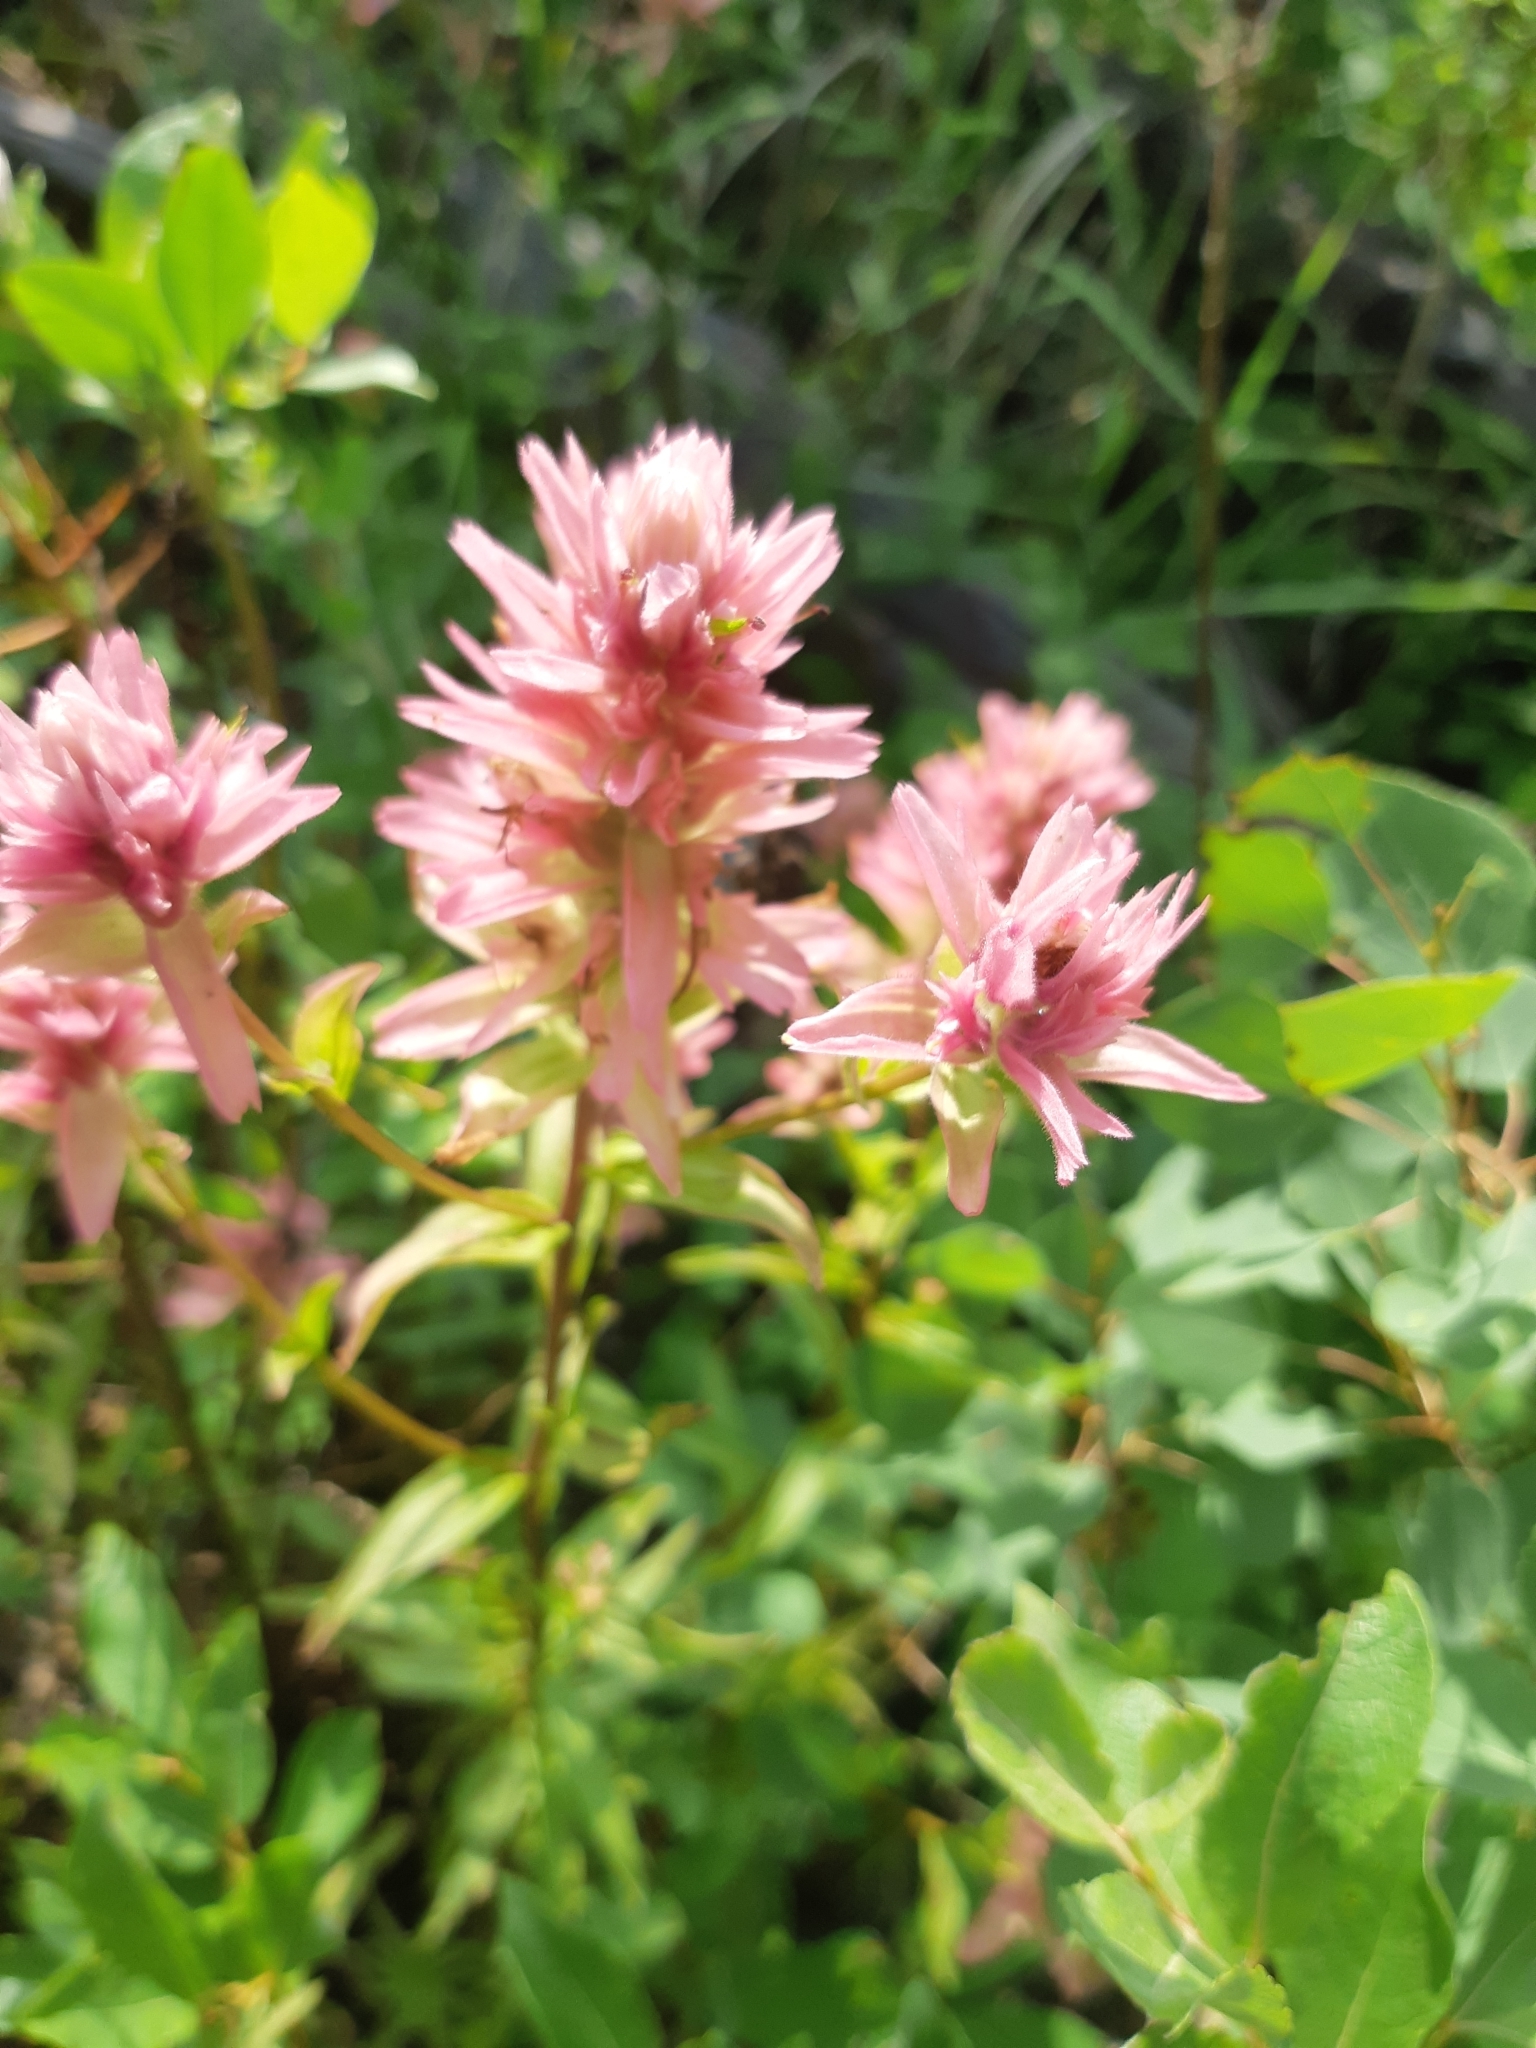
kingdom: Plantae
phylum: Tracheophyta
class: Magnoliopsida
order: Lamiales
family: Orobanchaceae
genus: Castilleja
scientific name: Castilleja miniata
